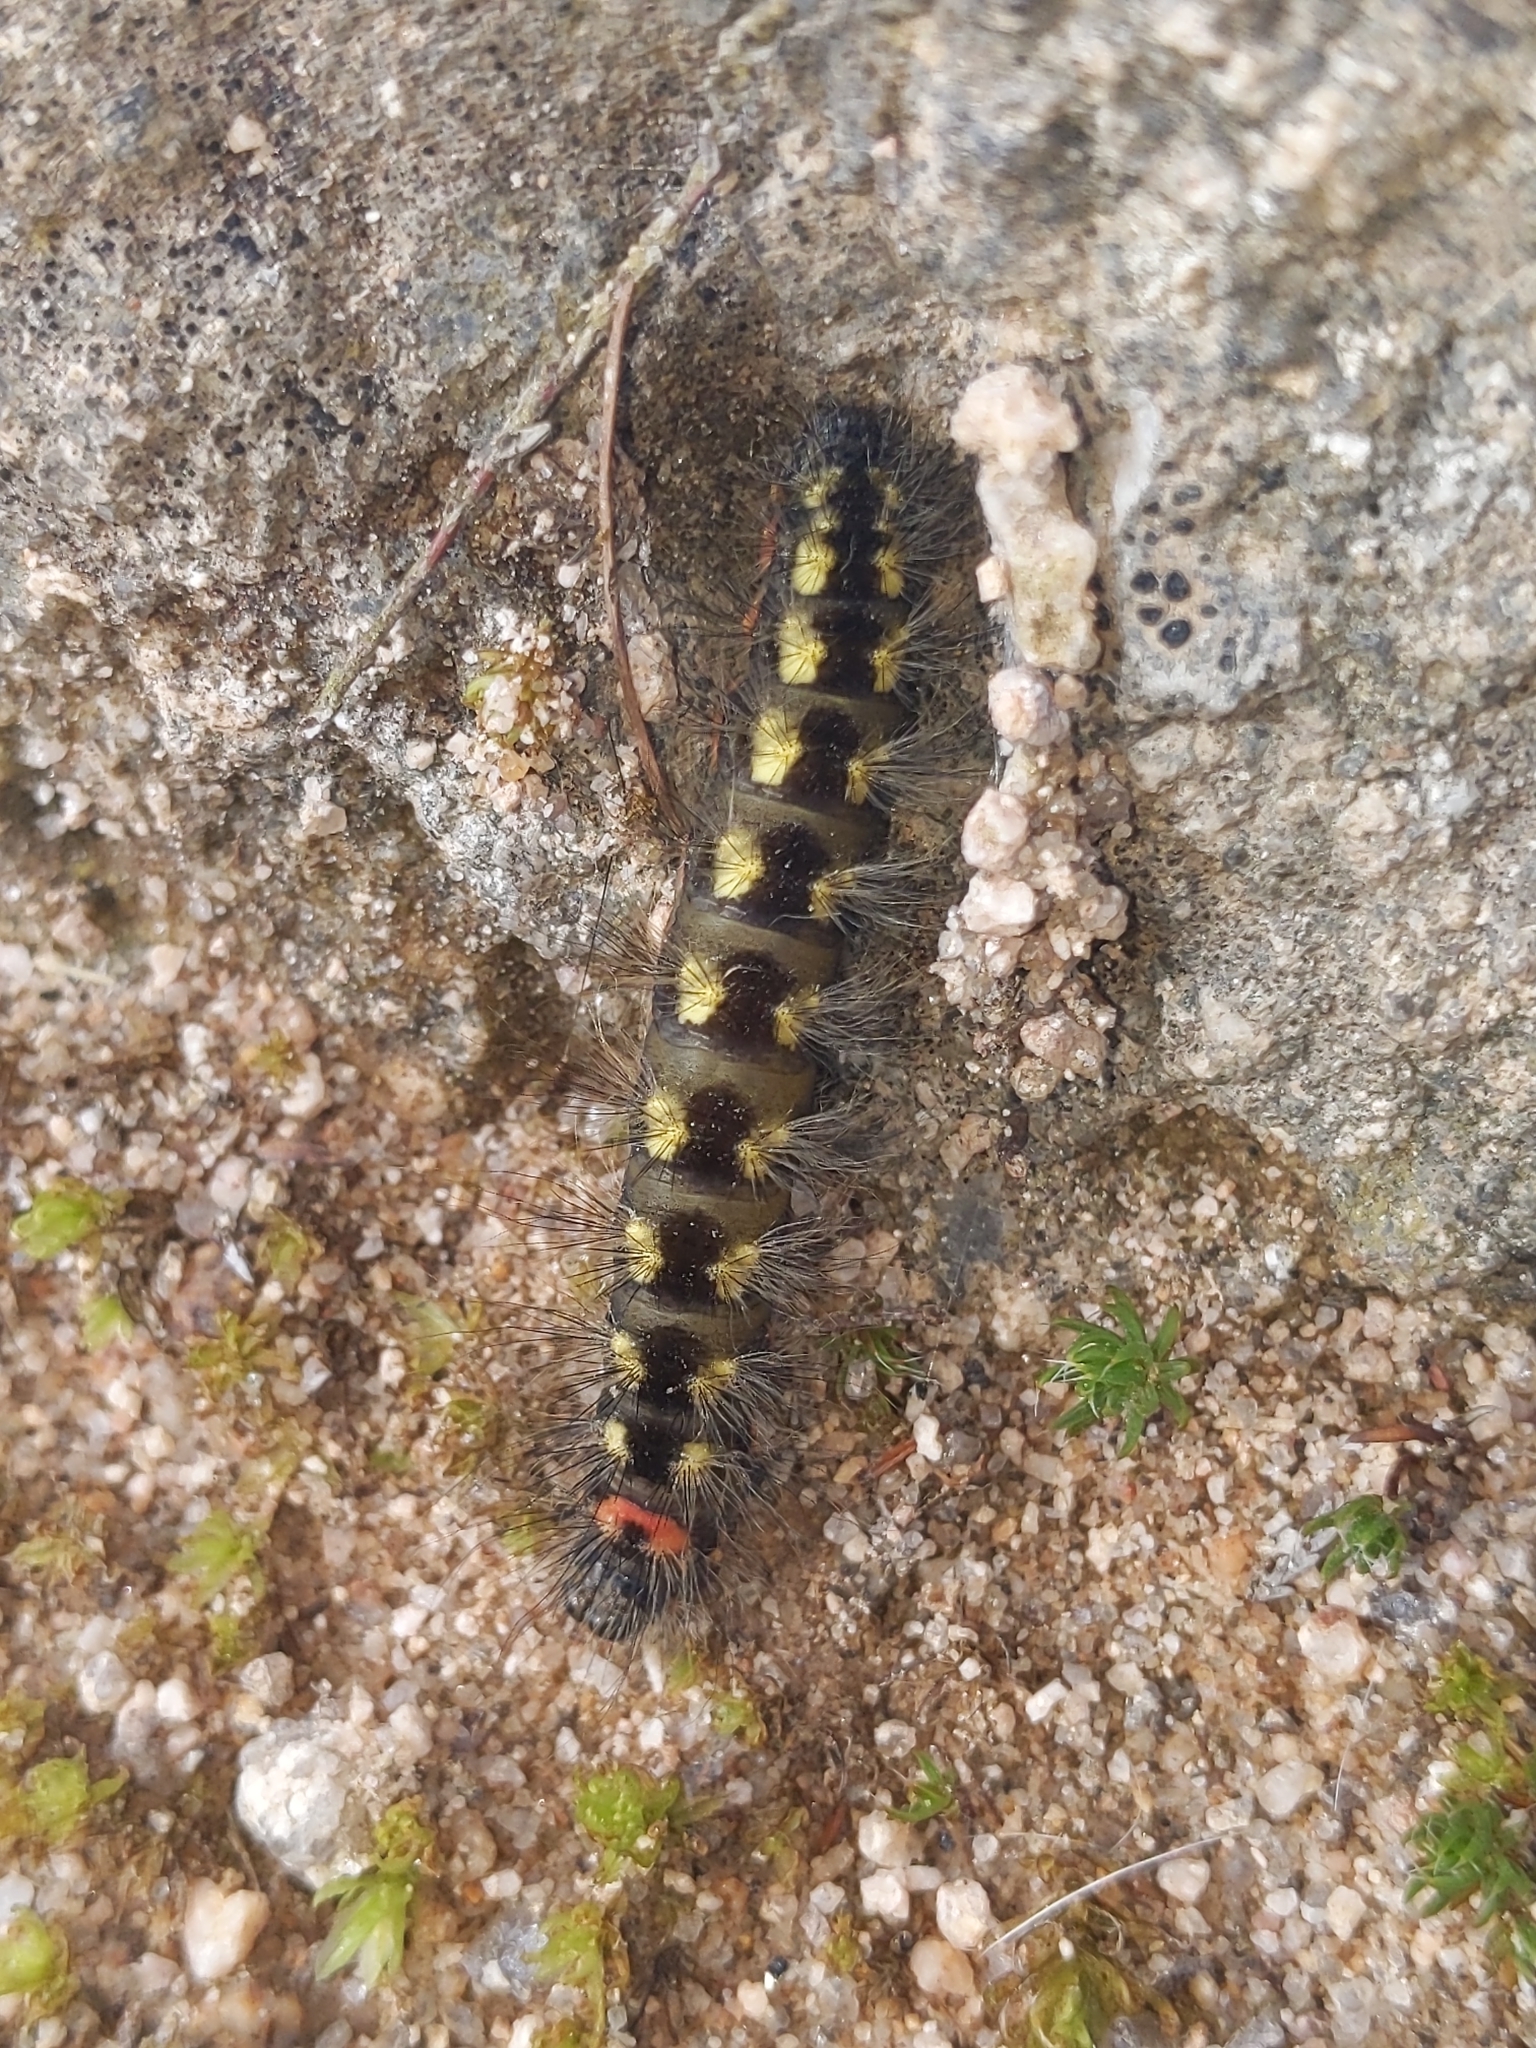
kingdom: Animalia
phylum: Arthropoda
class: Insecta
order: Lepidoptera
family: Noctuidae
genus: Acronicta
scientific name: Acronicta euphorbiae
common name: Sweet gale moth
